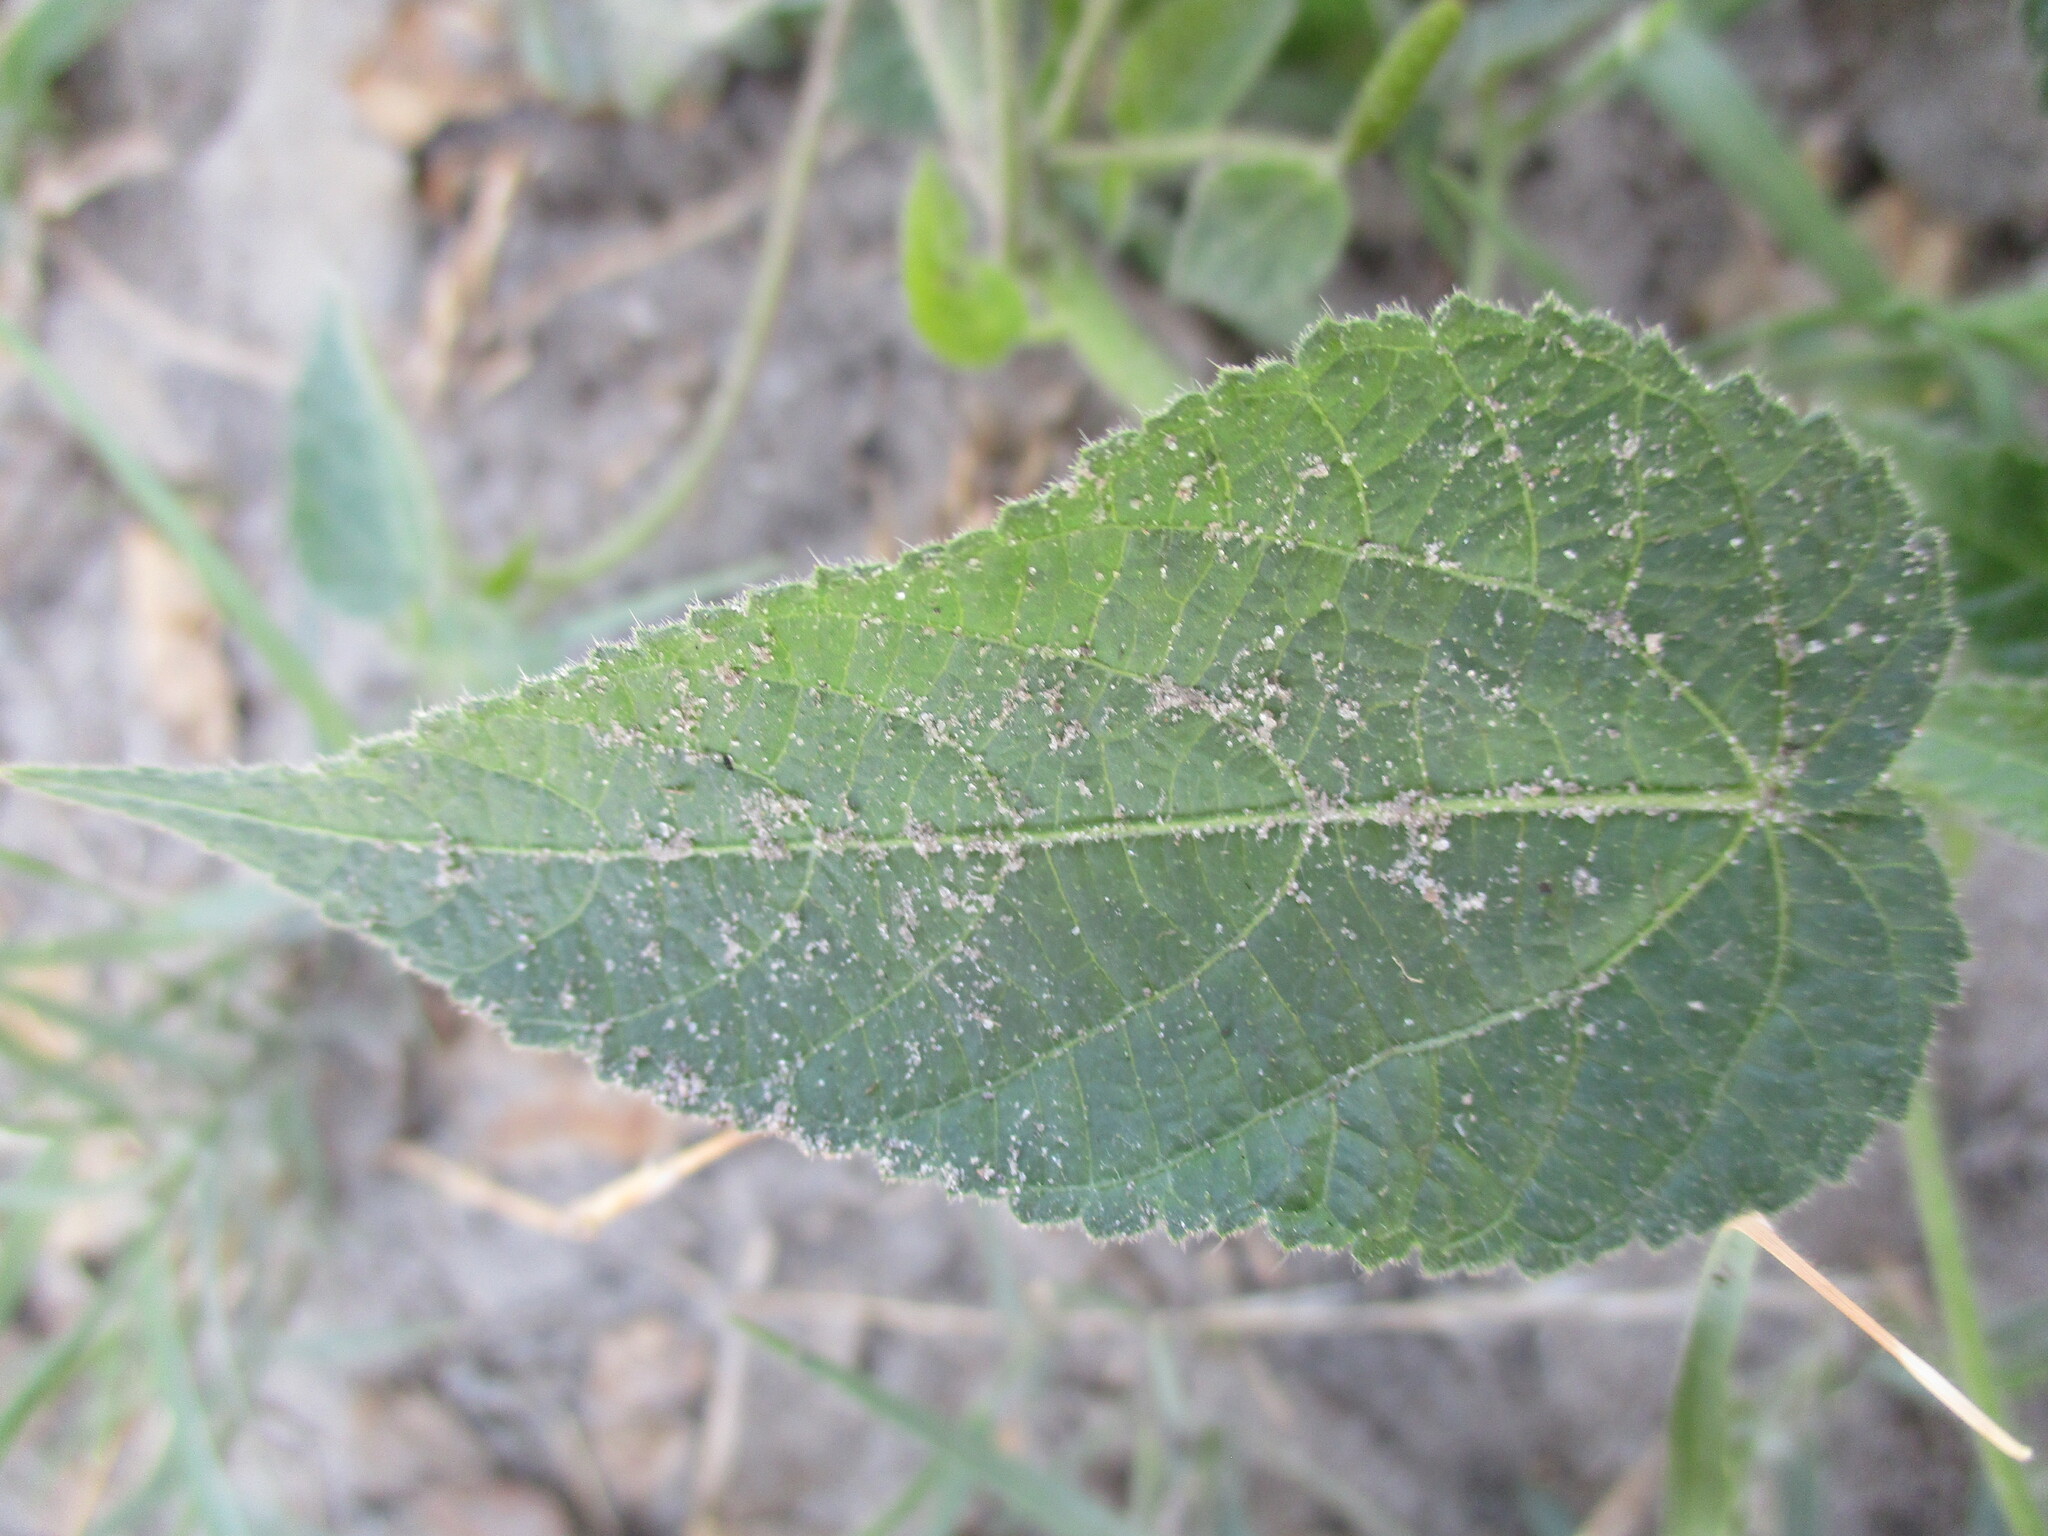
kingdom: Plantae
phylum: Tracheophyta
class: Magnoliopsida
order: Malpighiales
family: Euphorbiaceae
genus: Acalypha
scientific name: Acalypha petiolaris
